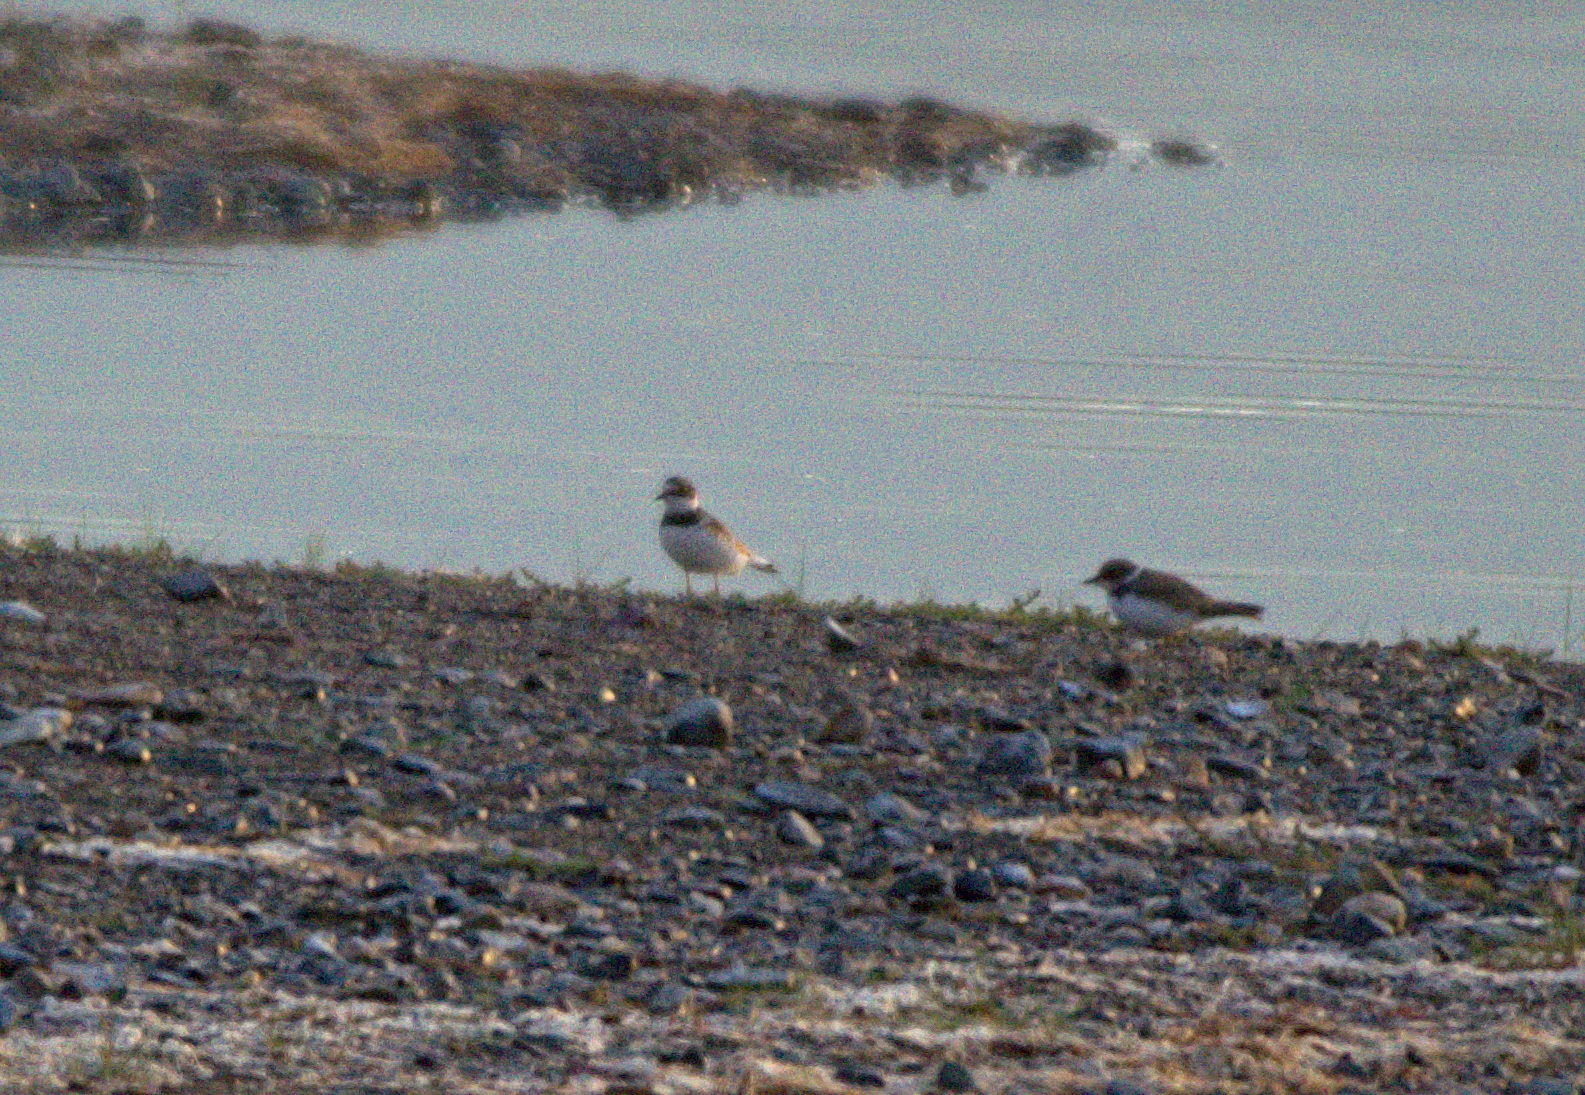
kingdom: Animalia
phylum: Chordata
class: Aves
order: Charadriiformes
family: Charadriidae
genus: Charadrius
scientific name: Charadrius dubius
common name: Little ringed plover
